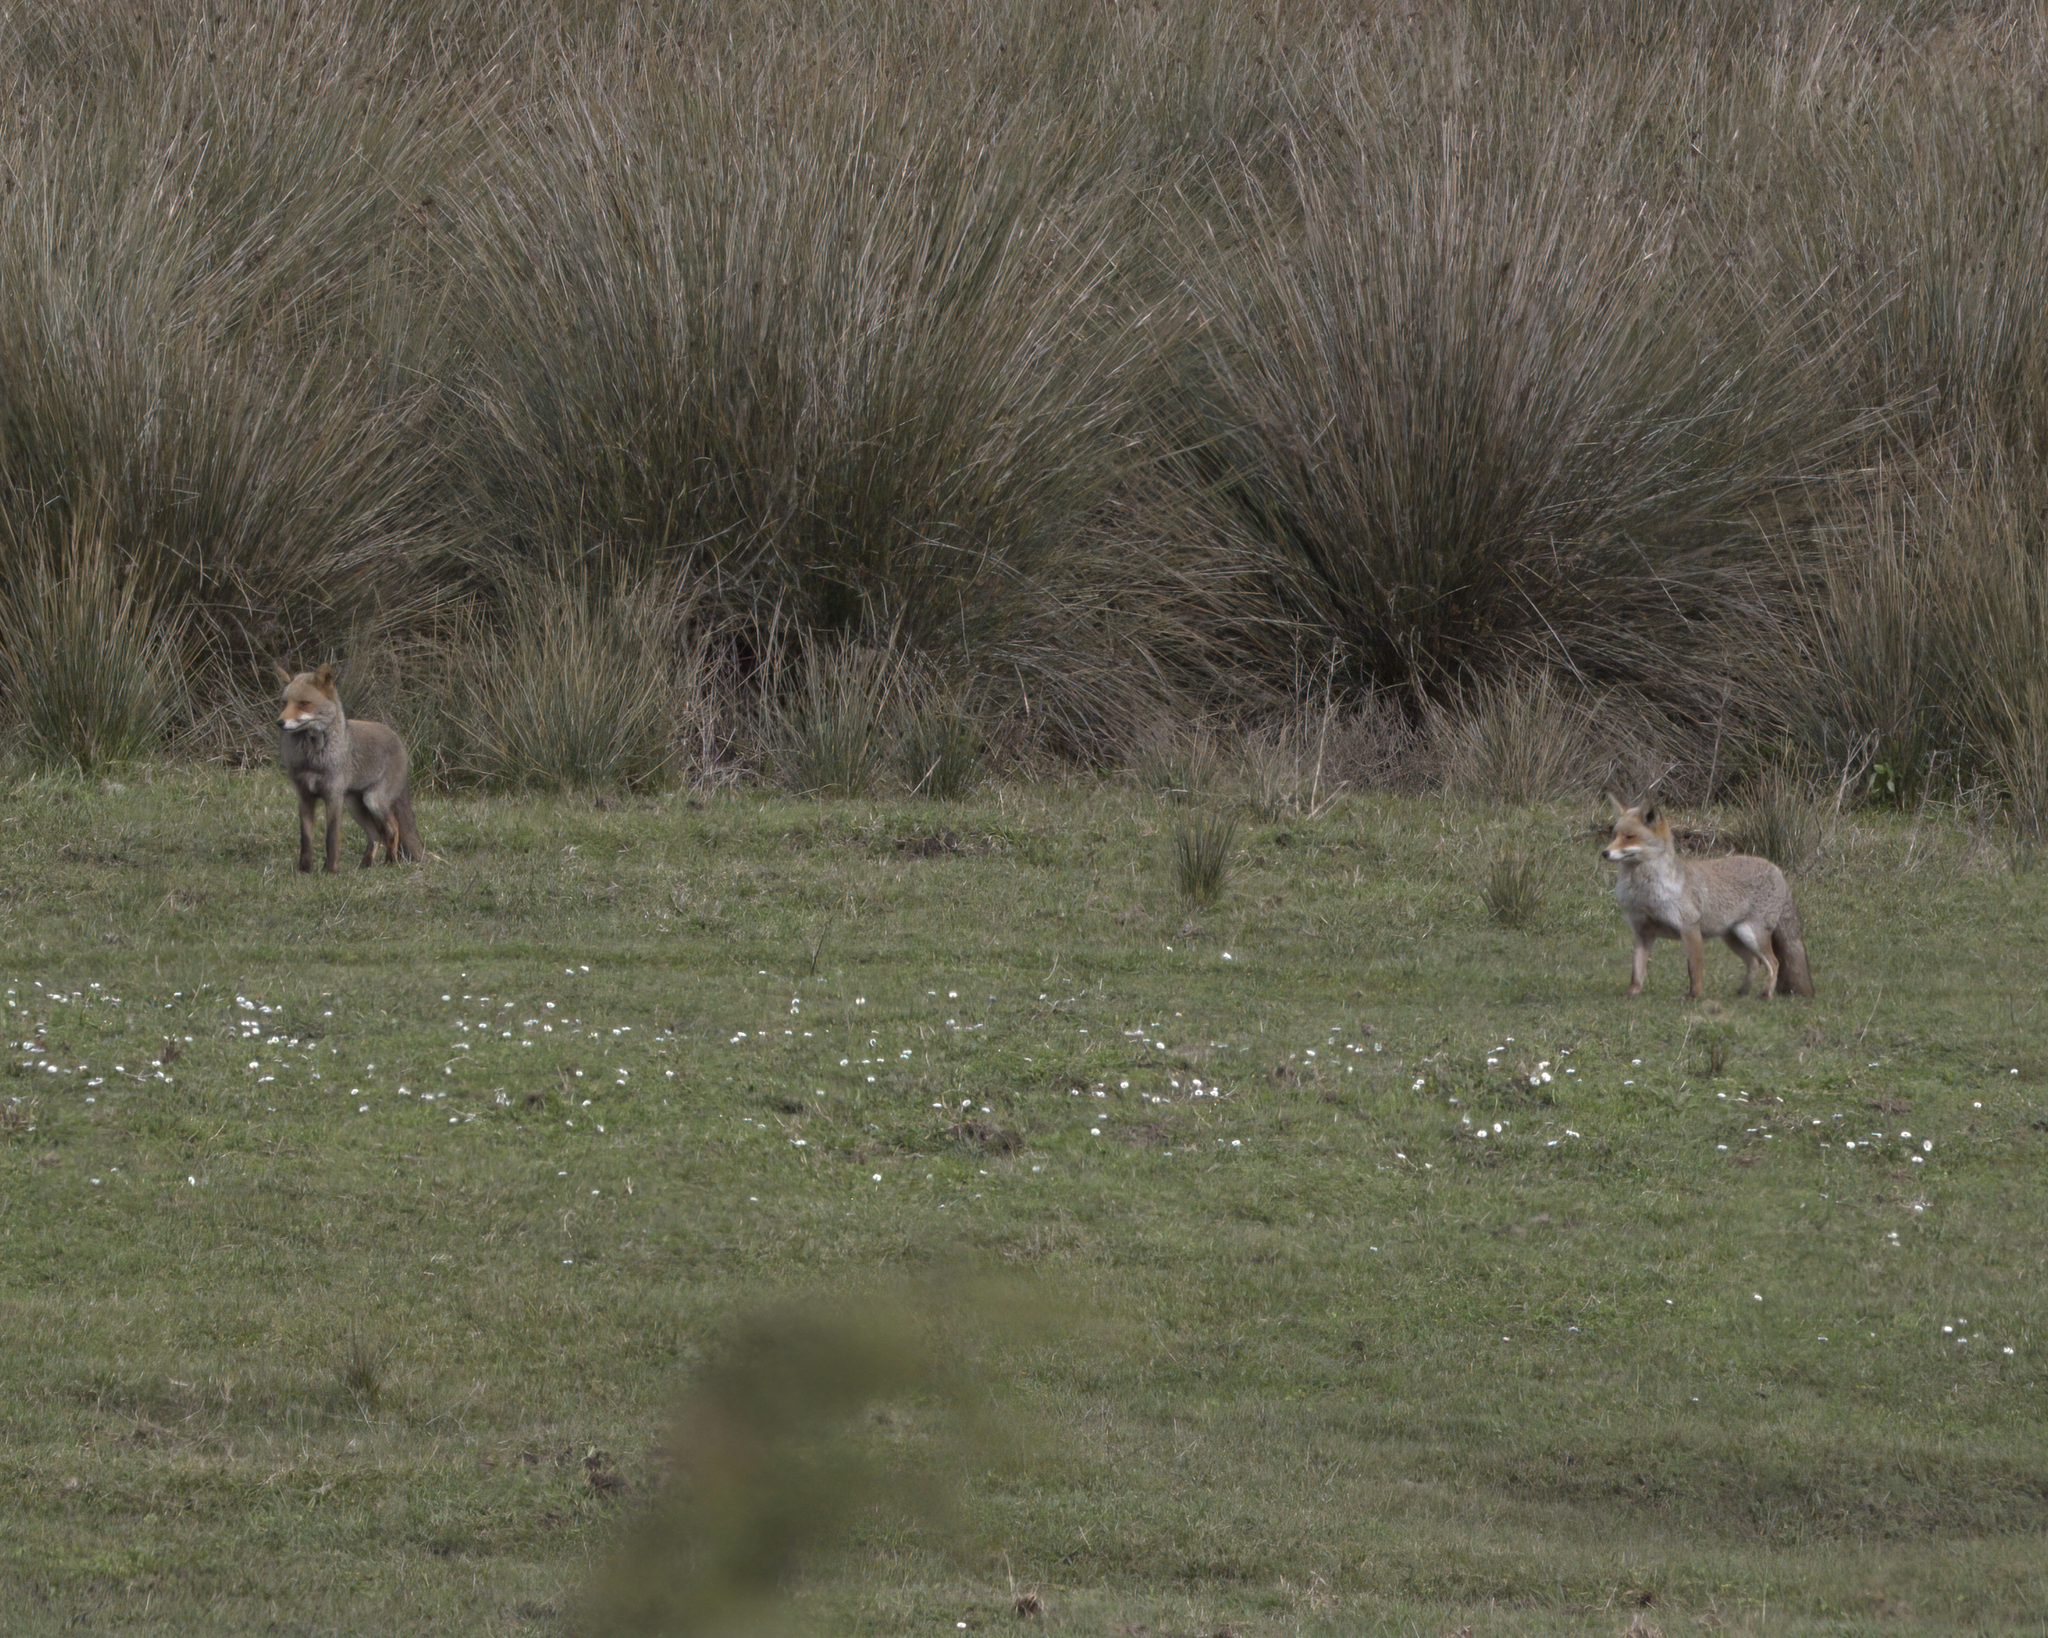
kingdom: Animalia
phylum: Chordata
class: Mammalia
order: Carnivora
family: Canidae
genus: Vulpes
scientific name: Vulpes vulpes
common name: Red fox
